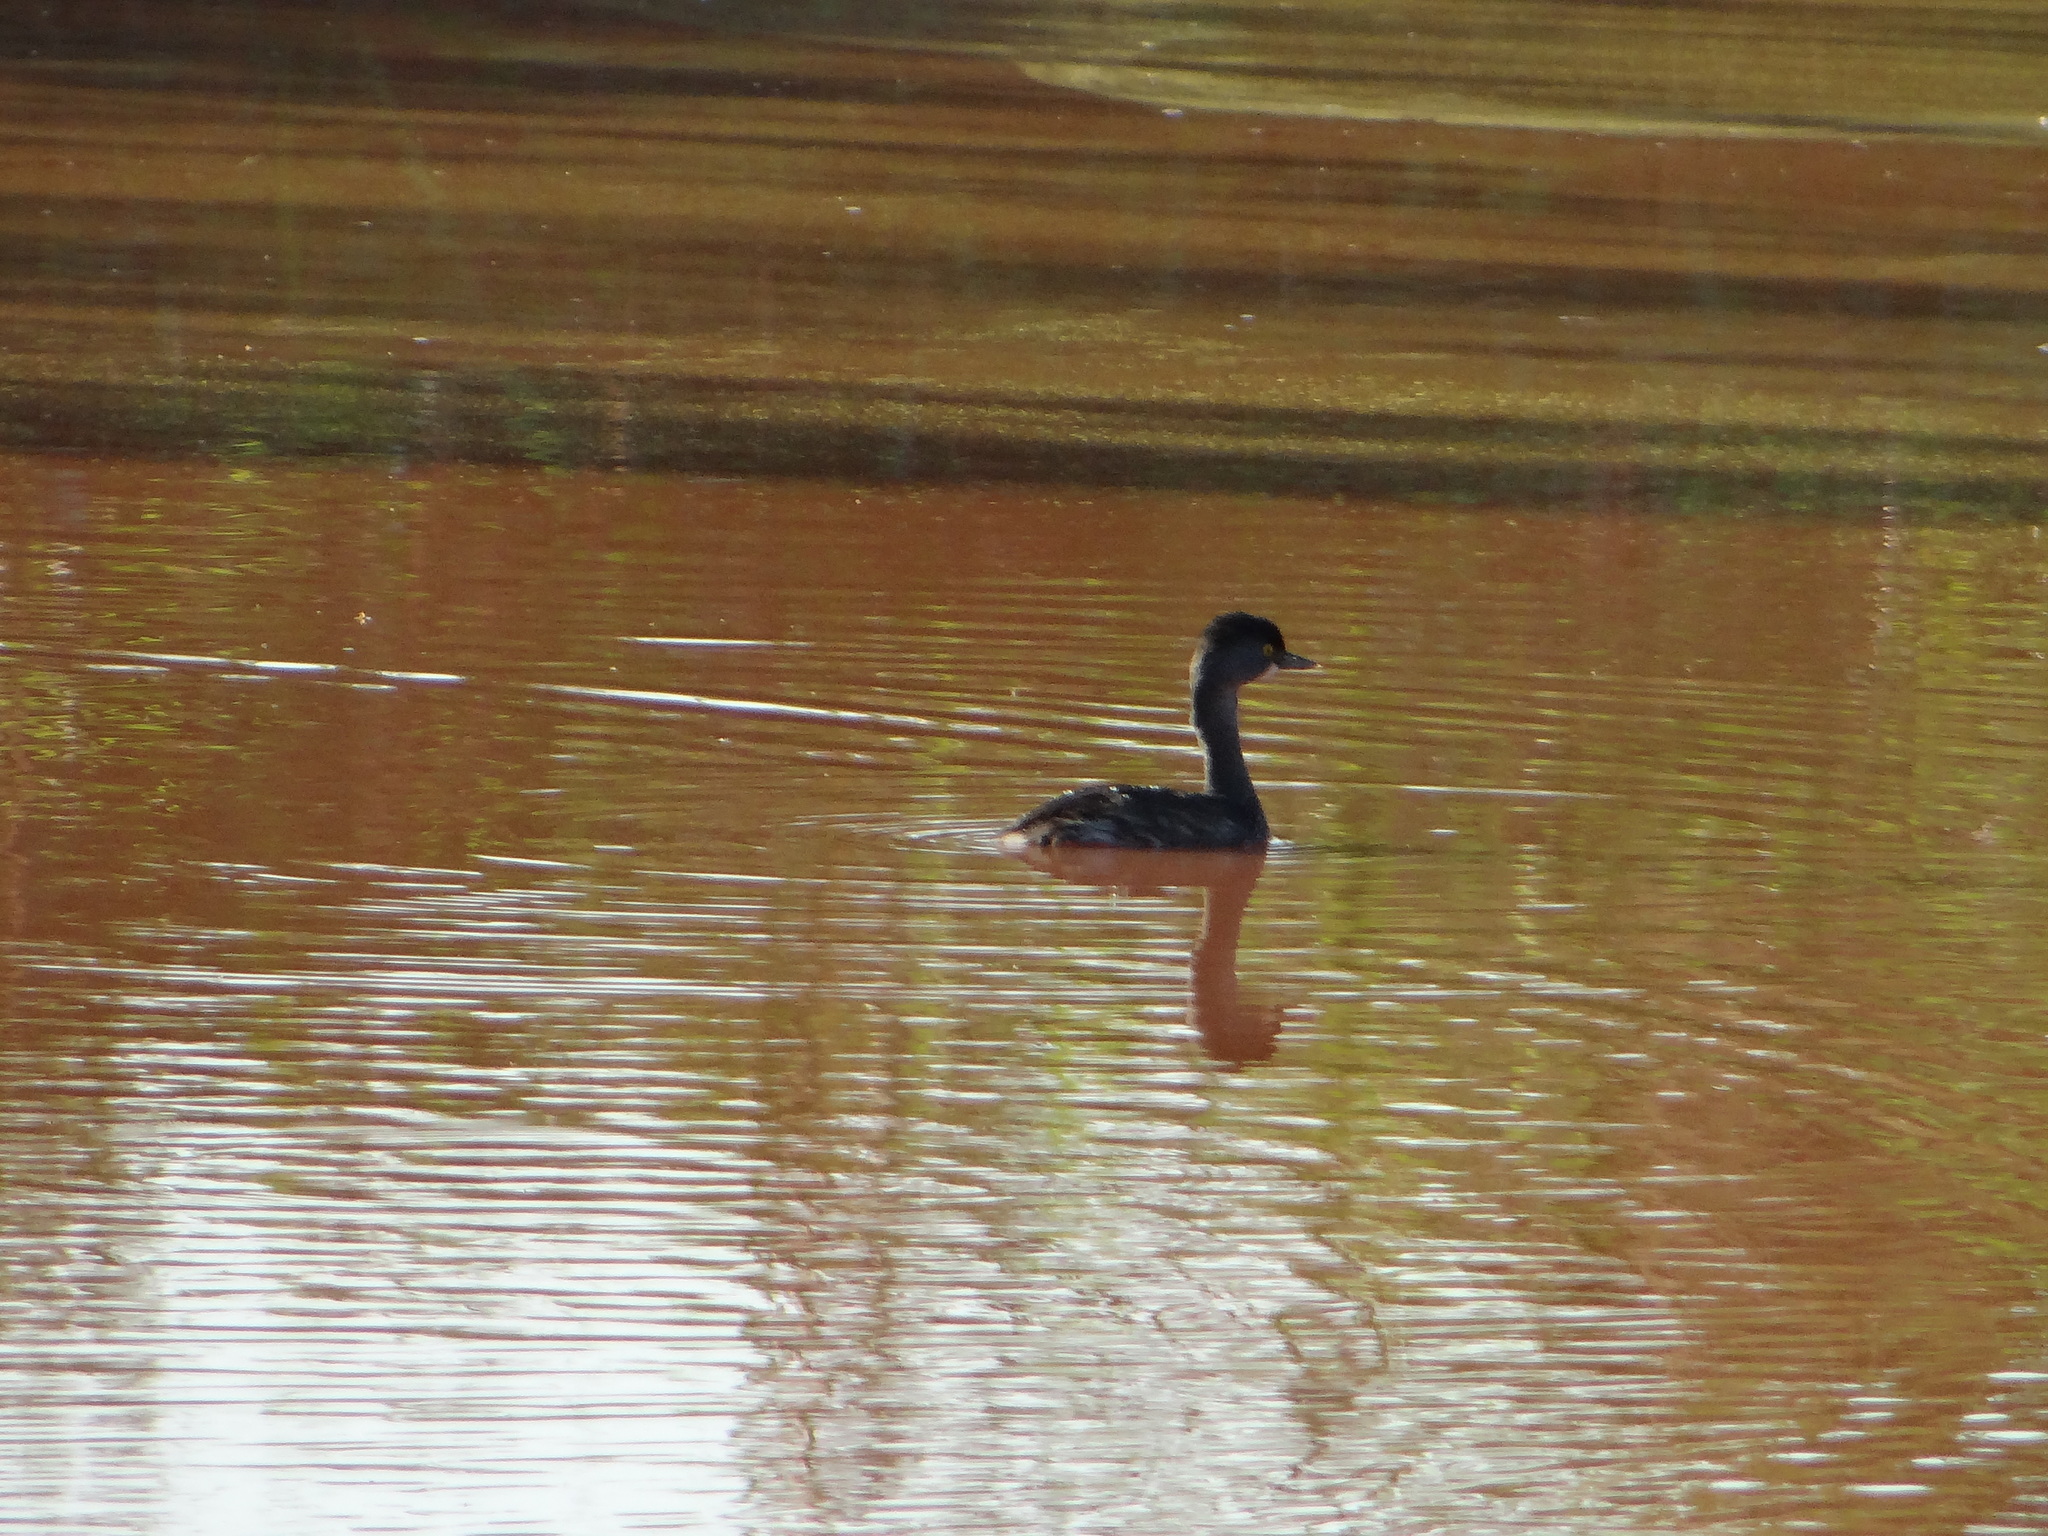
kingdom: Animalia
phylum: Chordata
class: Aves
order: Podicipediformes
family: Podicipedidae
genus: Tachybaptus
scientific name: Tachybaptus dominicus
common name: Least grebe
